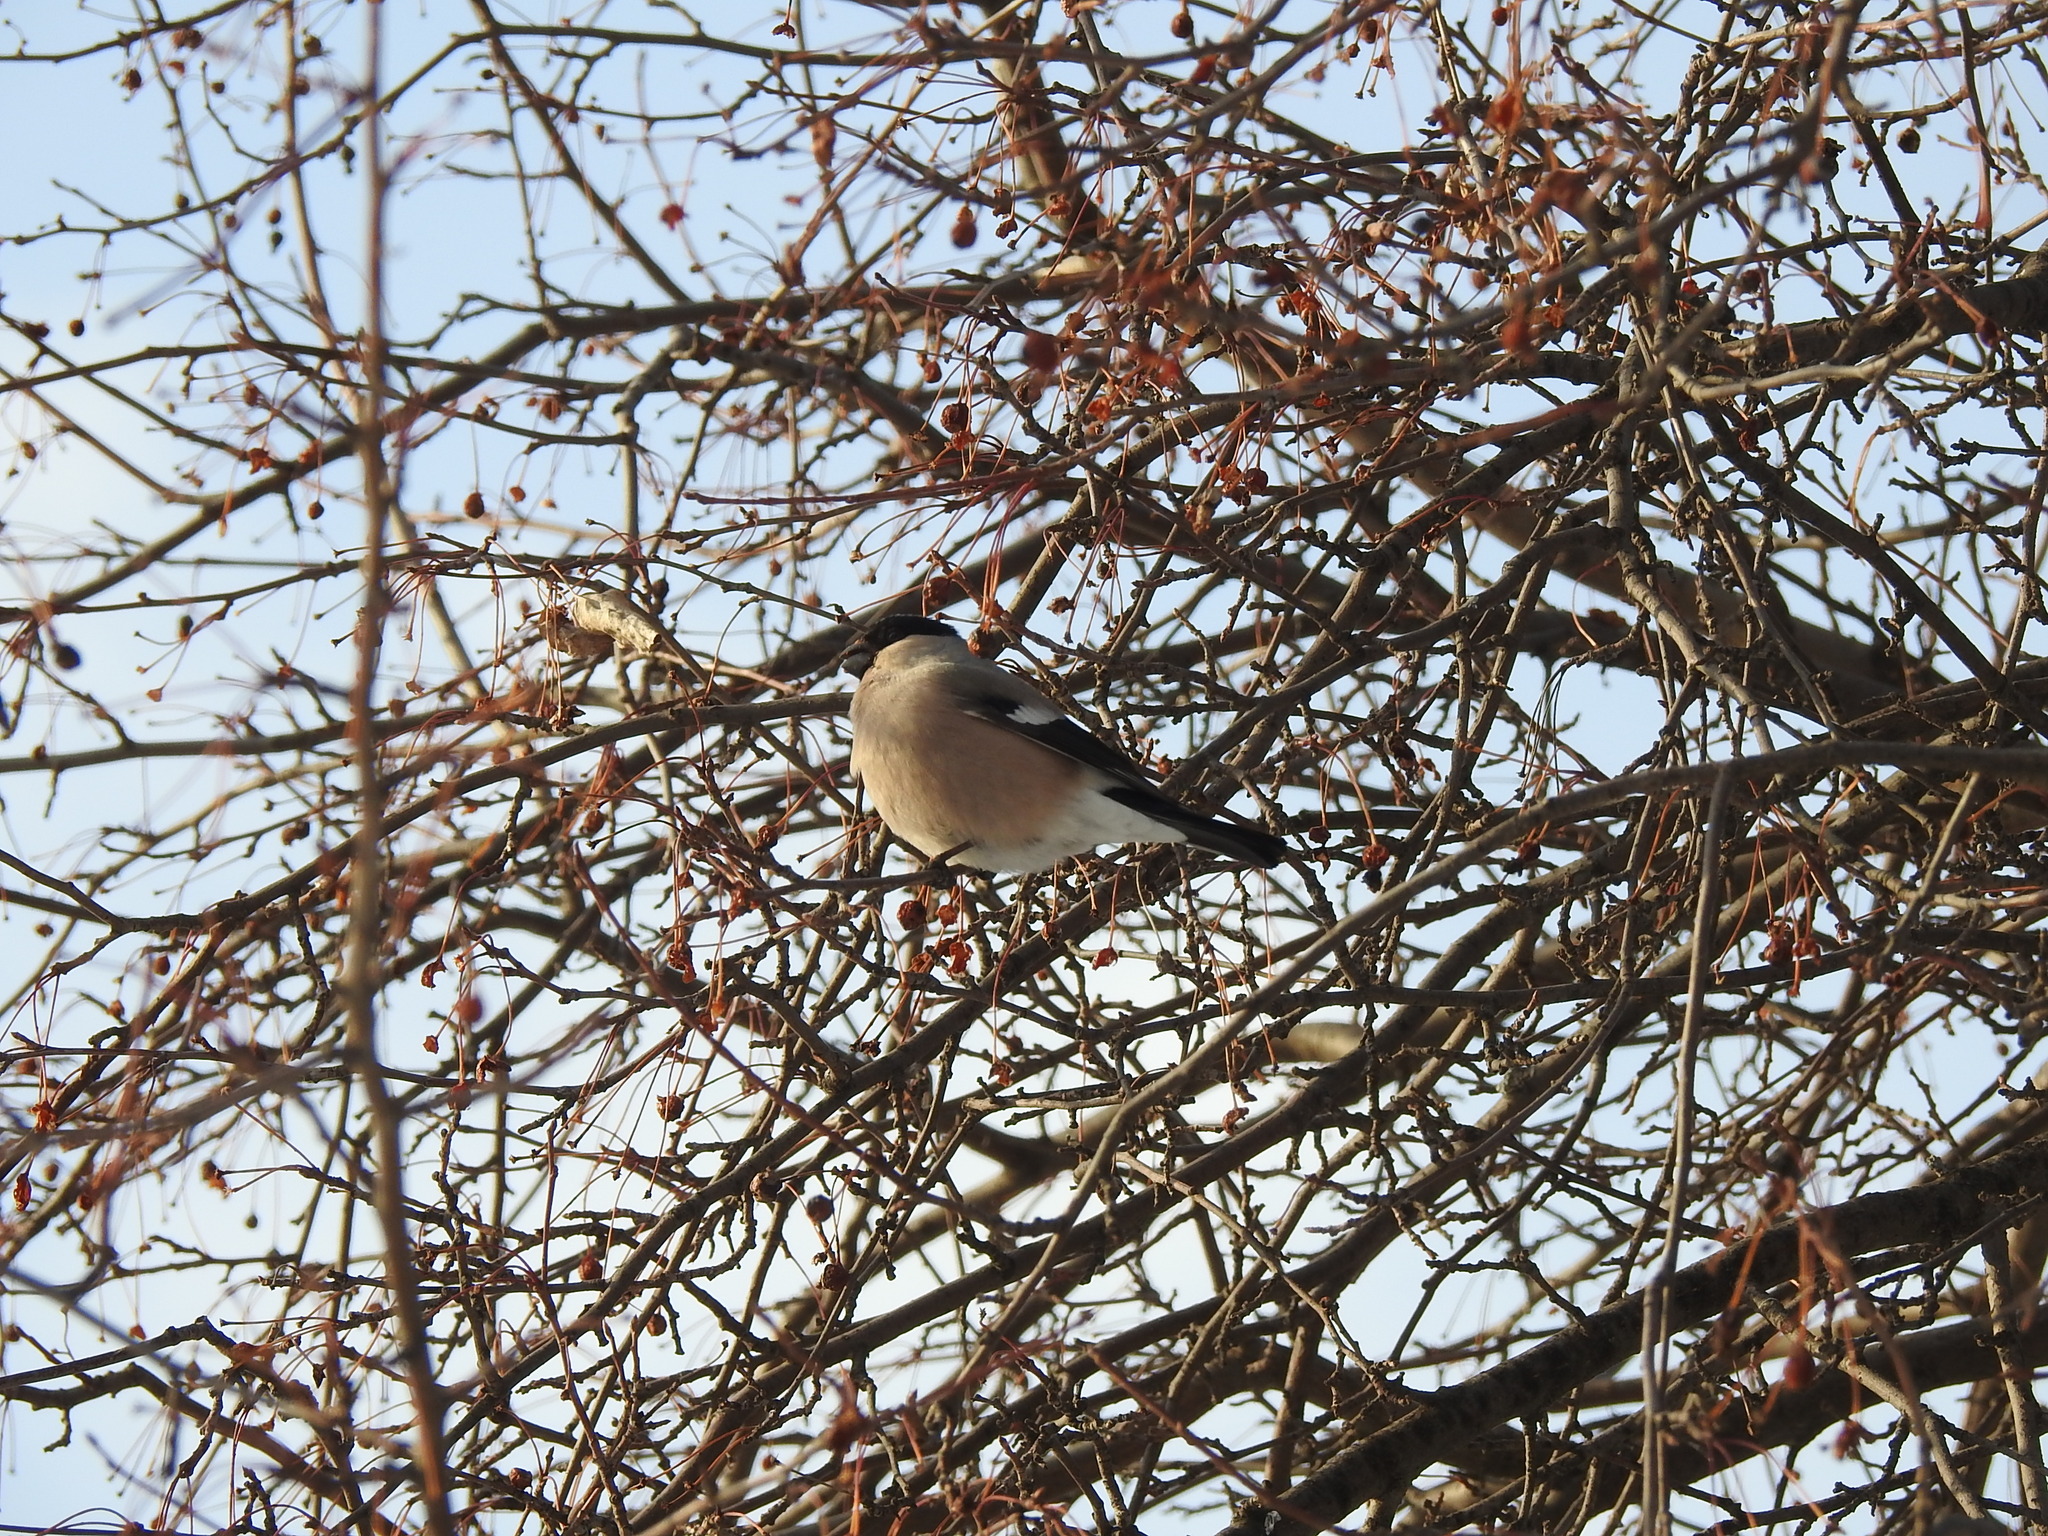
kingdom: Animalia
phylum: Chordata
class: Aves
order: Passeriformes
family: Fringillidae
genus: Pyrrhula
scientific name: Pyrrhula pyrrhula
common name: Eurasian bullfinch
